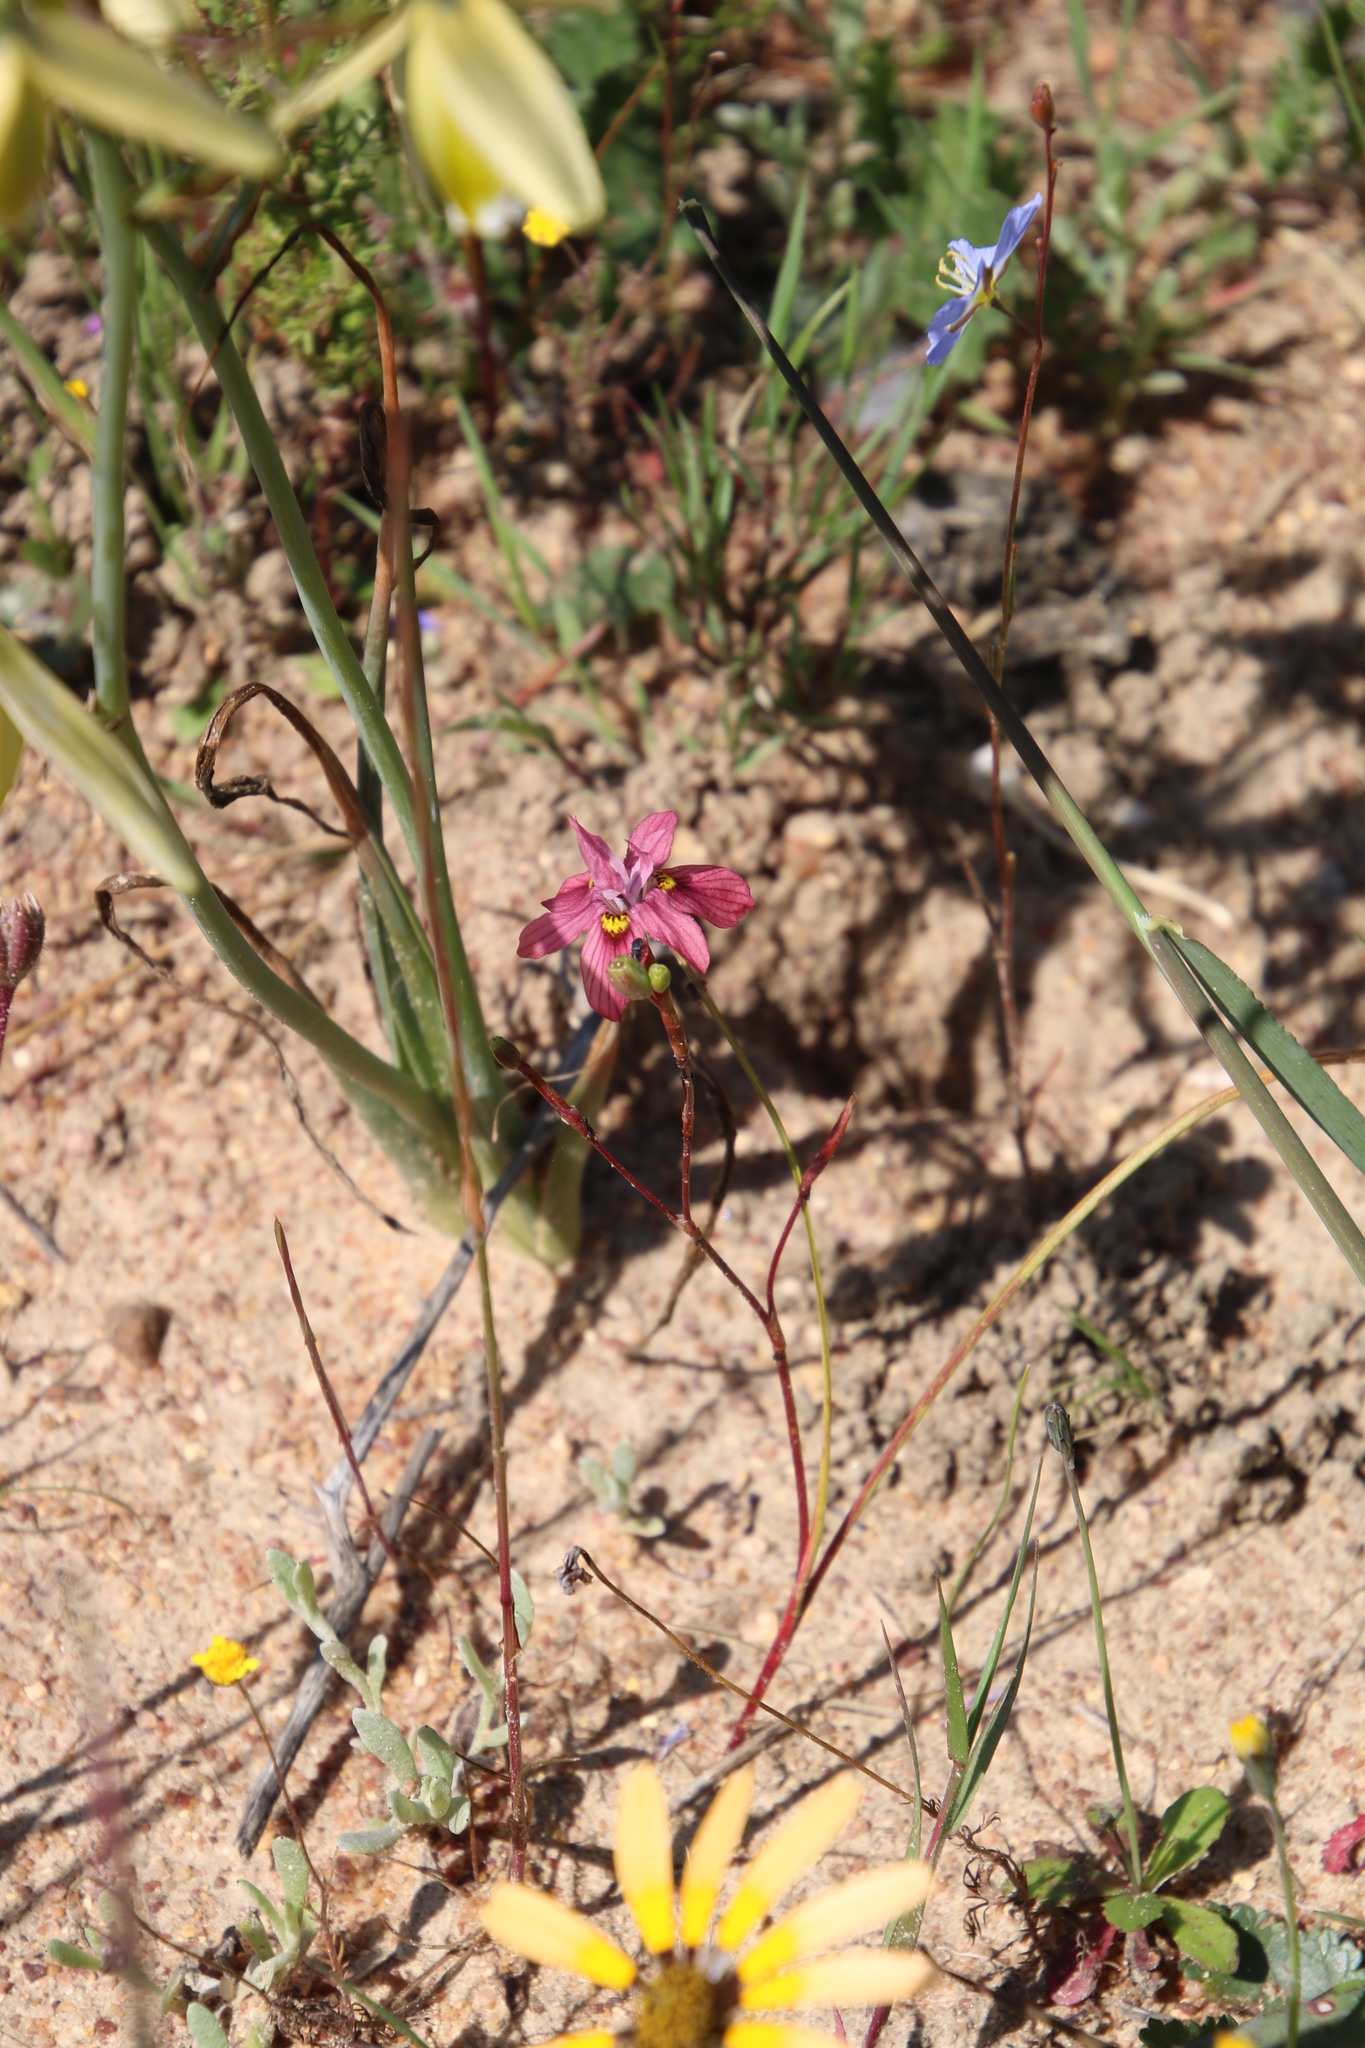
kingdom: Plantae
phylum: Tracheophyta
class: Liliopsida
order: Asparagales
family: Iridaceae
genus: Moraea
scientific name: Moraea gawleri
